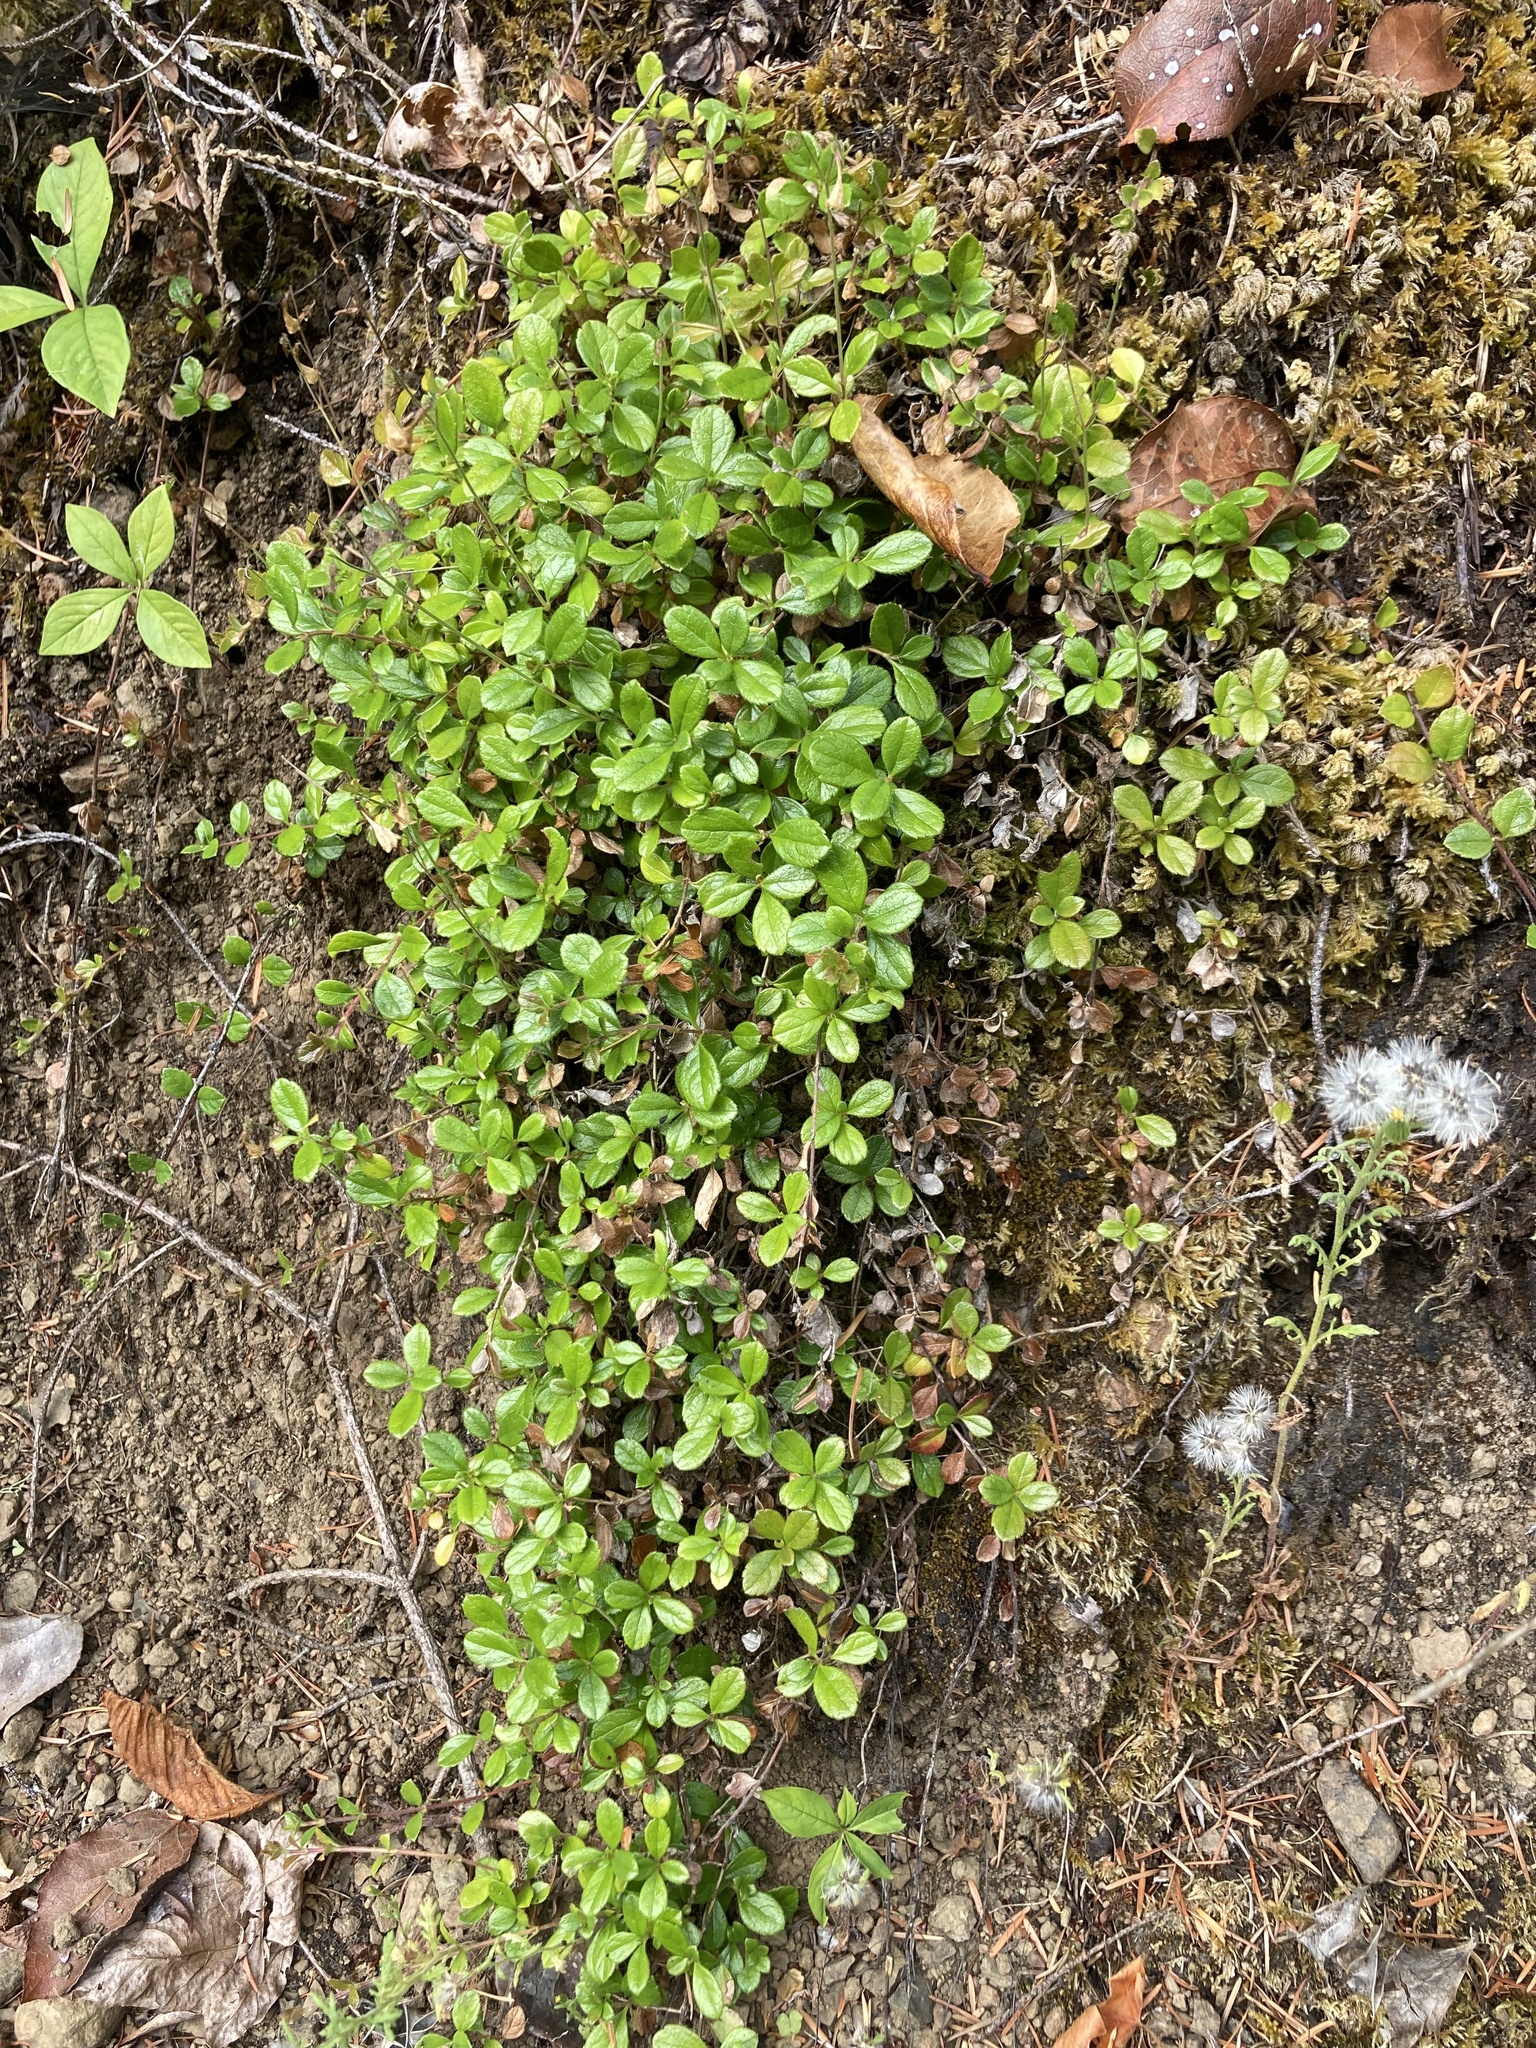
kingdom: Plantae
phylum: Tracheophyta
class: Magnoliopsida
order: Dipsacales
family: Caprifoliaceae
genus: Linnaea
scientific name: Linnaea borealis
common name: Twinflower
